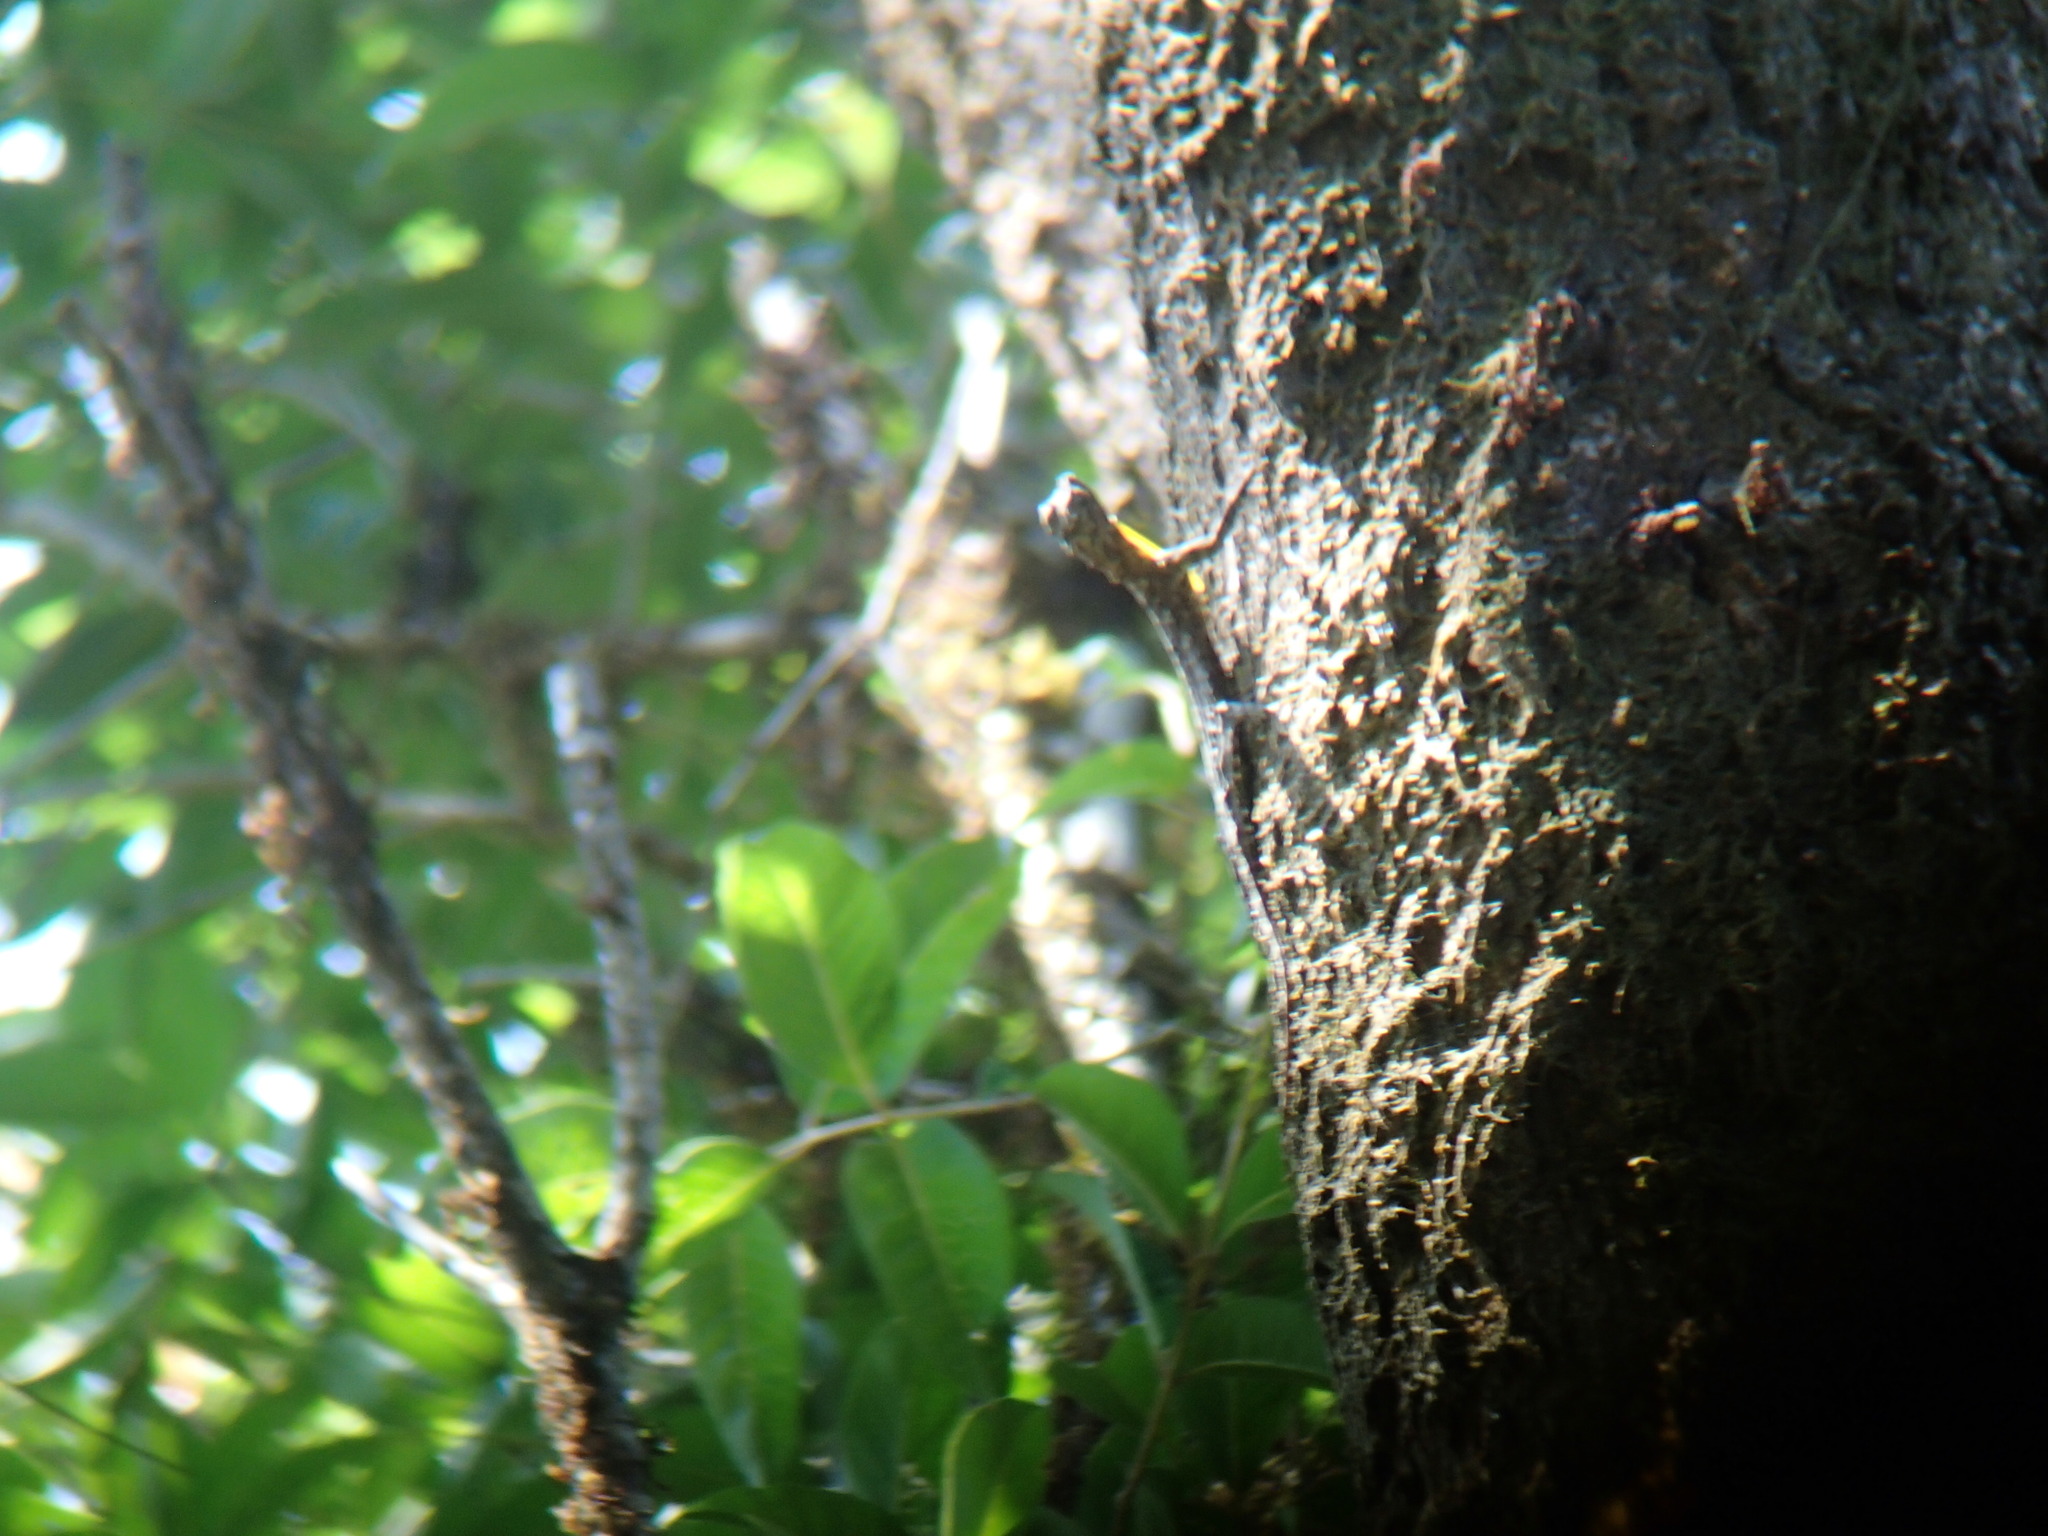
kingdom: Animalia
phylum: Chordata
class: Squamata
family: Agamidae
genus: Draco
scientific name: Draco dussumieri
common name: Southern flying lizard
